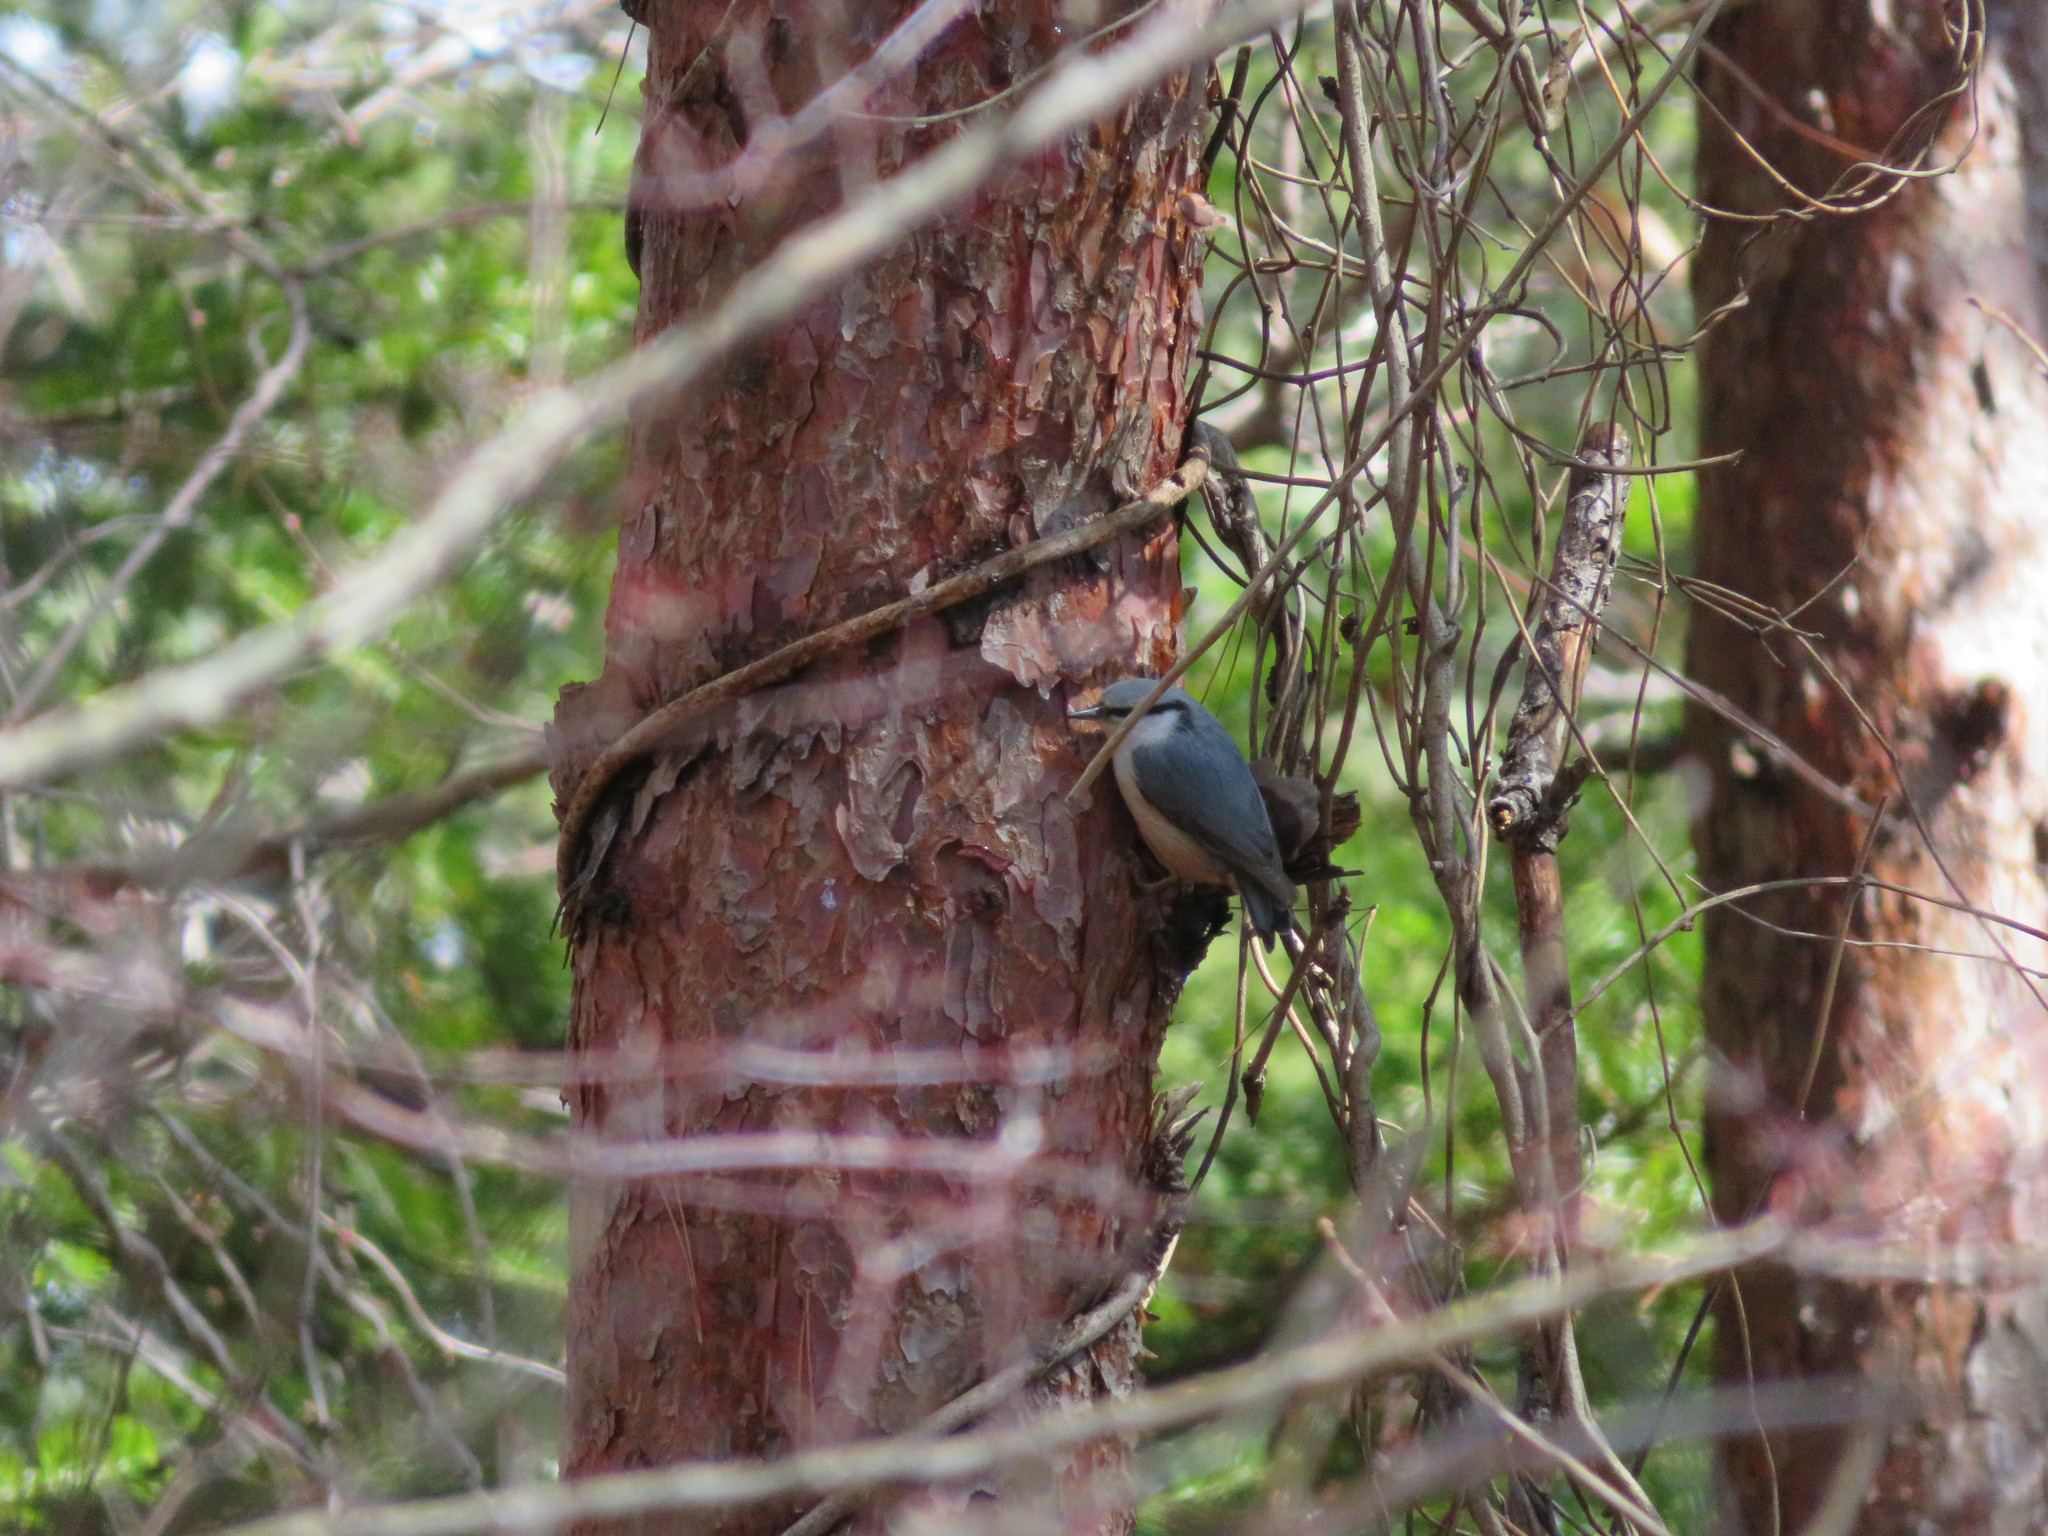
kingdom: Animalia
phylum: Chordata
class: Aves
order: Passeriformes
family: Sittidae
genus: Sitta
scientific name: Sitta europaea
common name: Eurasian nuthatch
